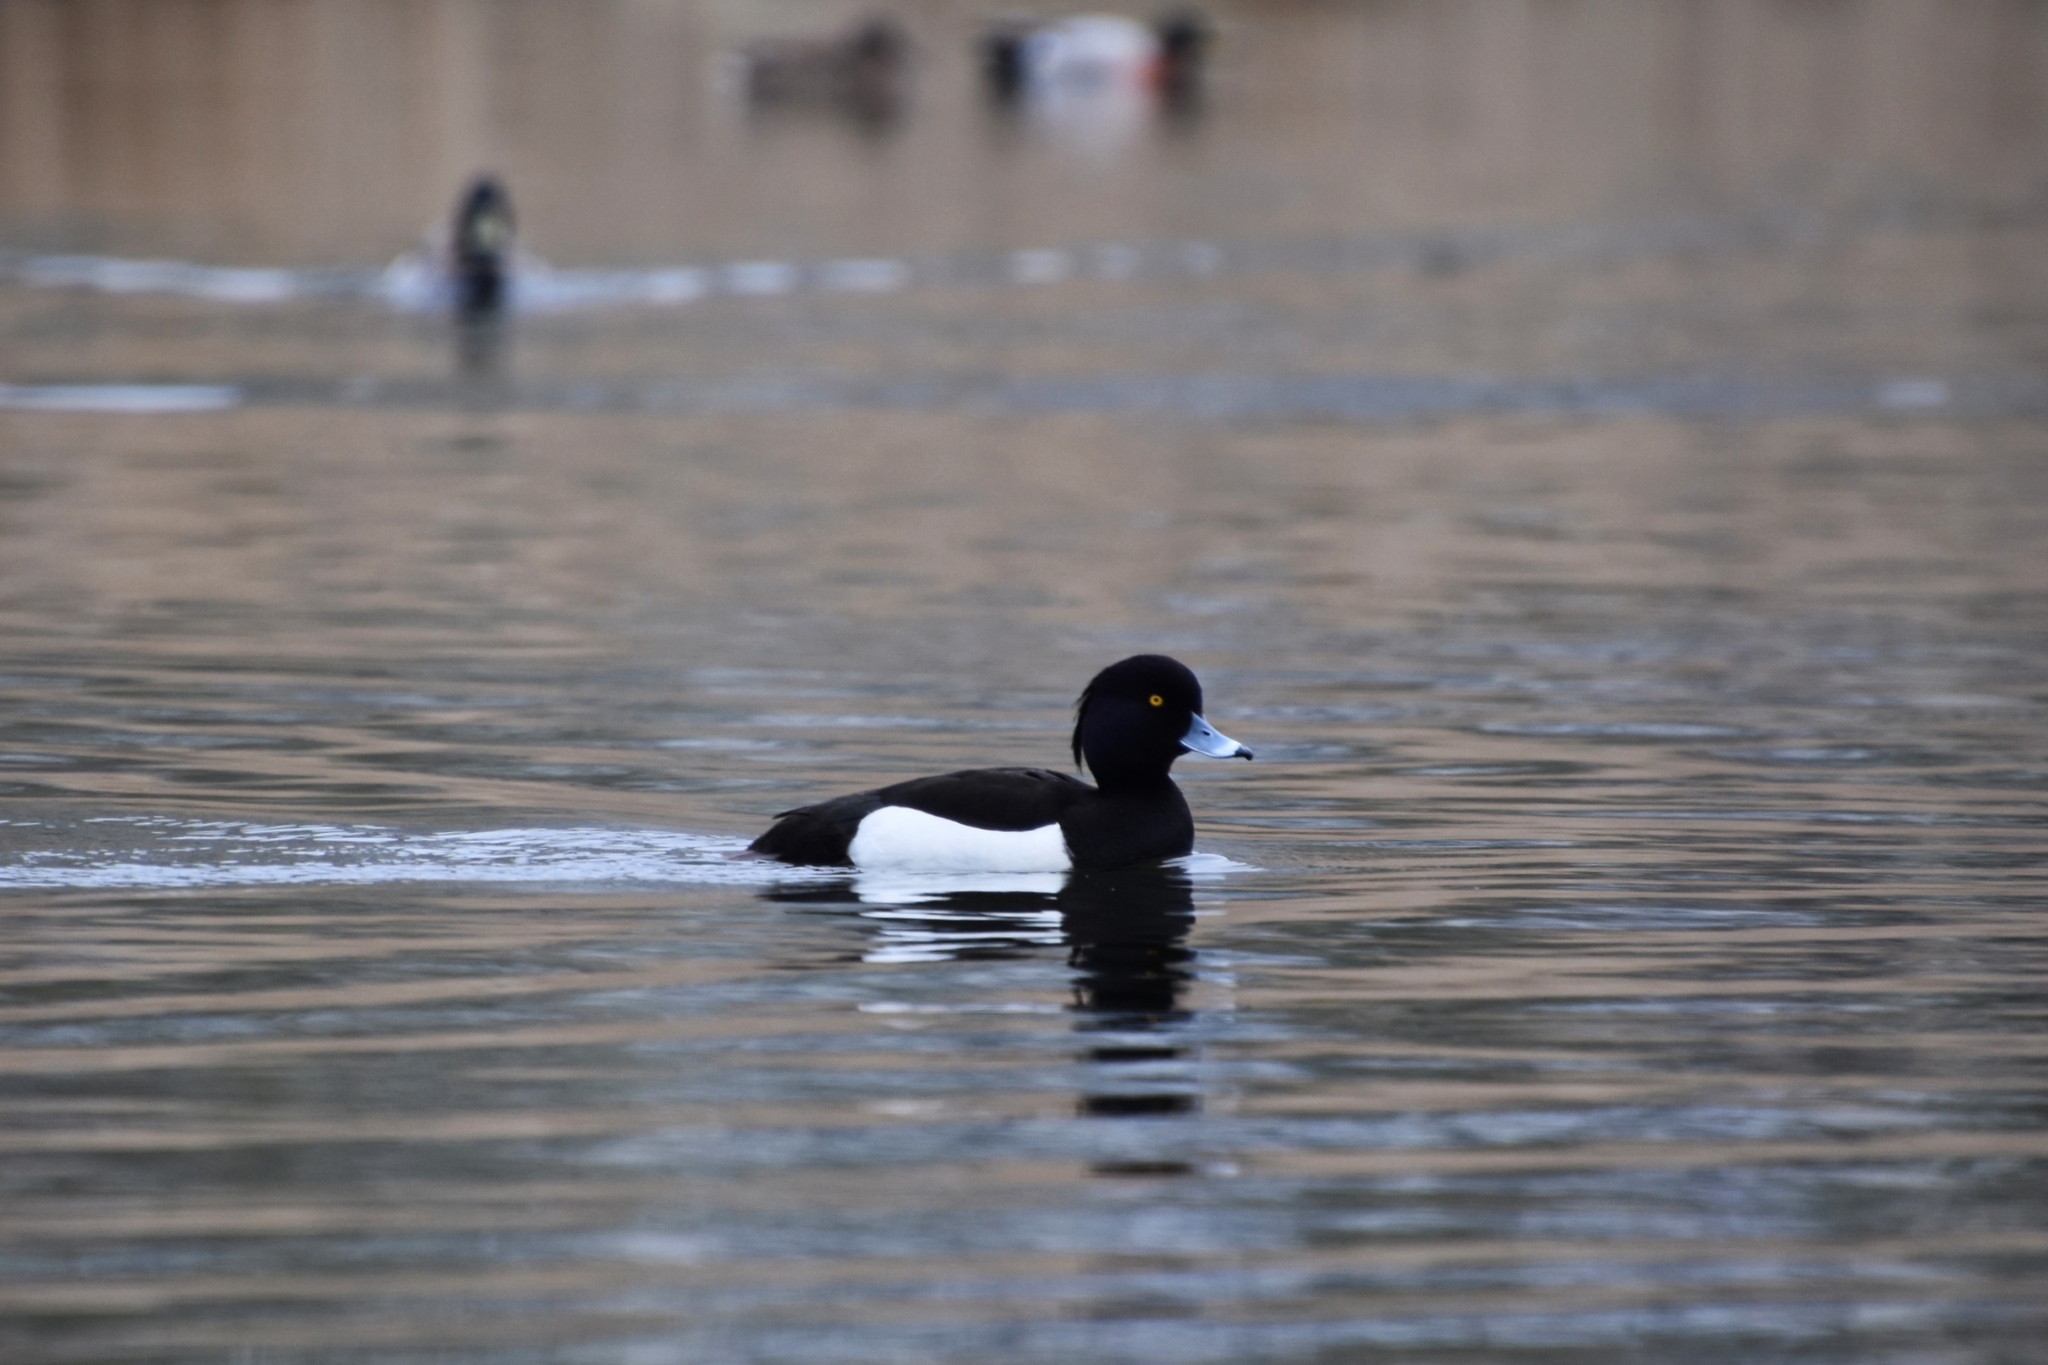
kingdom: Animalia
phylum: Chordata
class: Aves
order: Anseriformes
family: Anatidae
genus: Aythya
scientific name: Aythya fuligula
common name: Tufted duck
